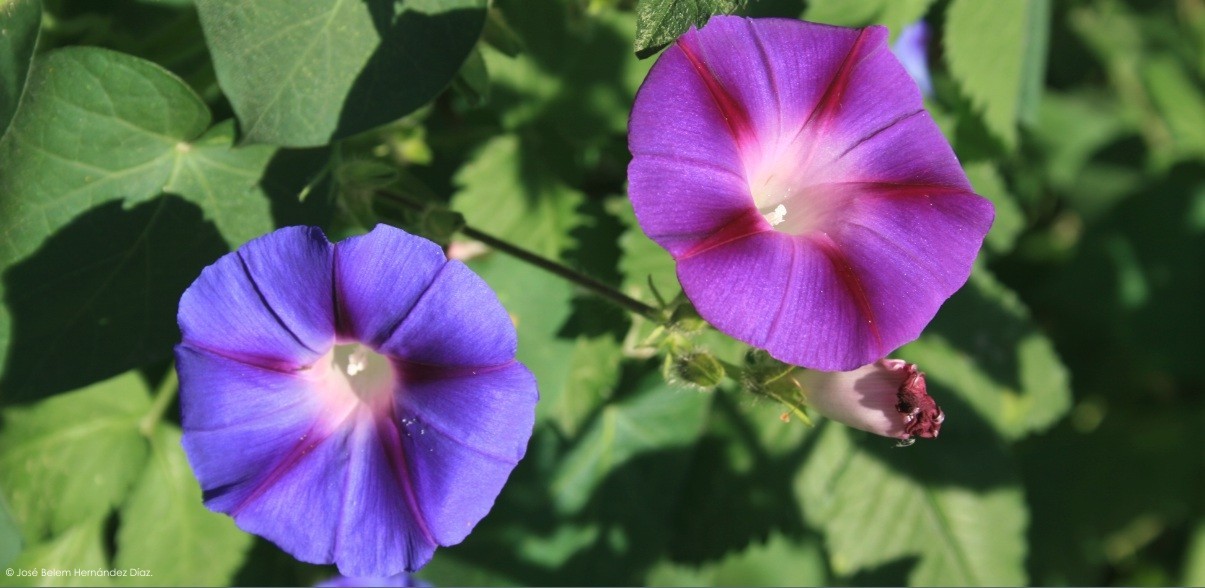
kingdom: Plantae
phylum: Tracheophyta
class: Magnoliopsida
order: Solanales
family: Convolvulaceae
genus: Ipomoea
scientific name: Ipomoea purpurea
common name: Common morning-glory
